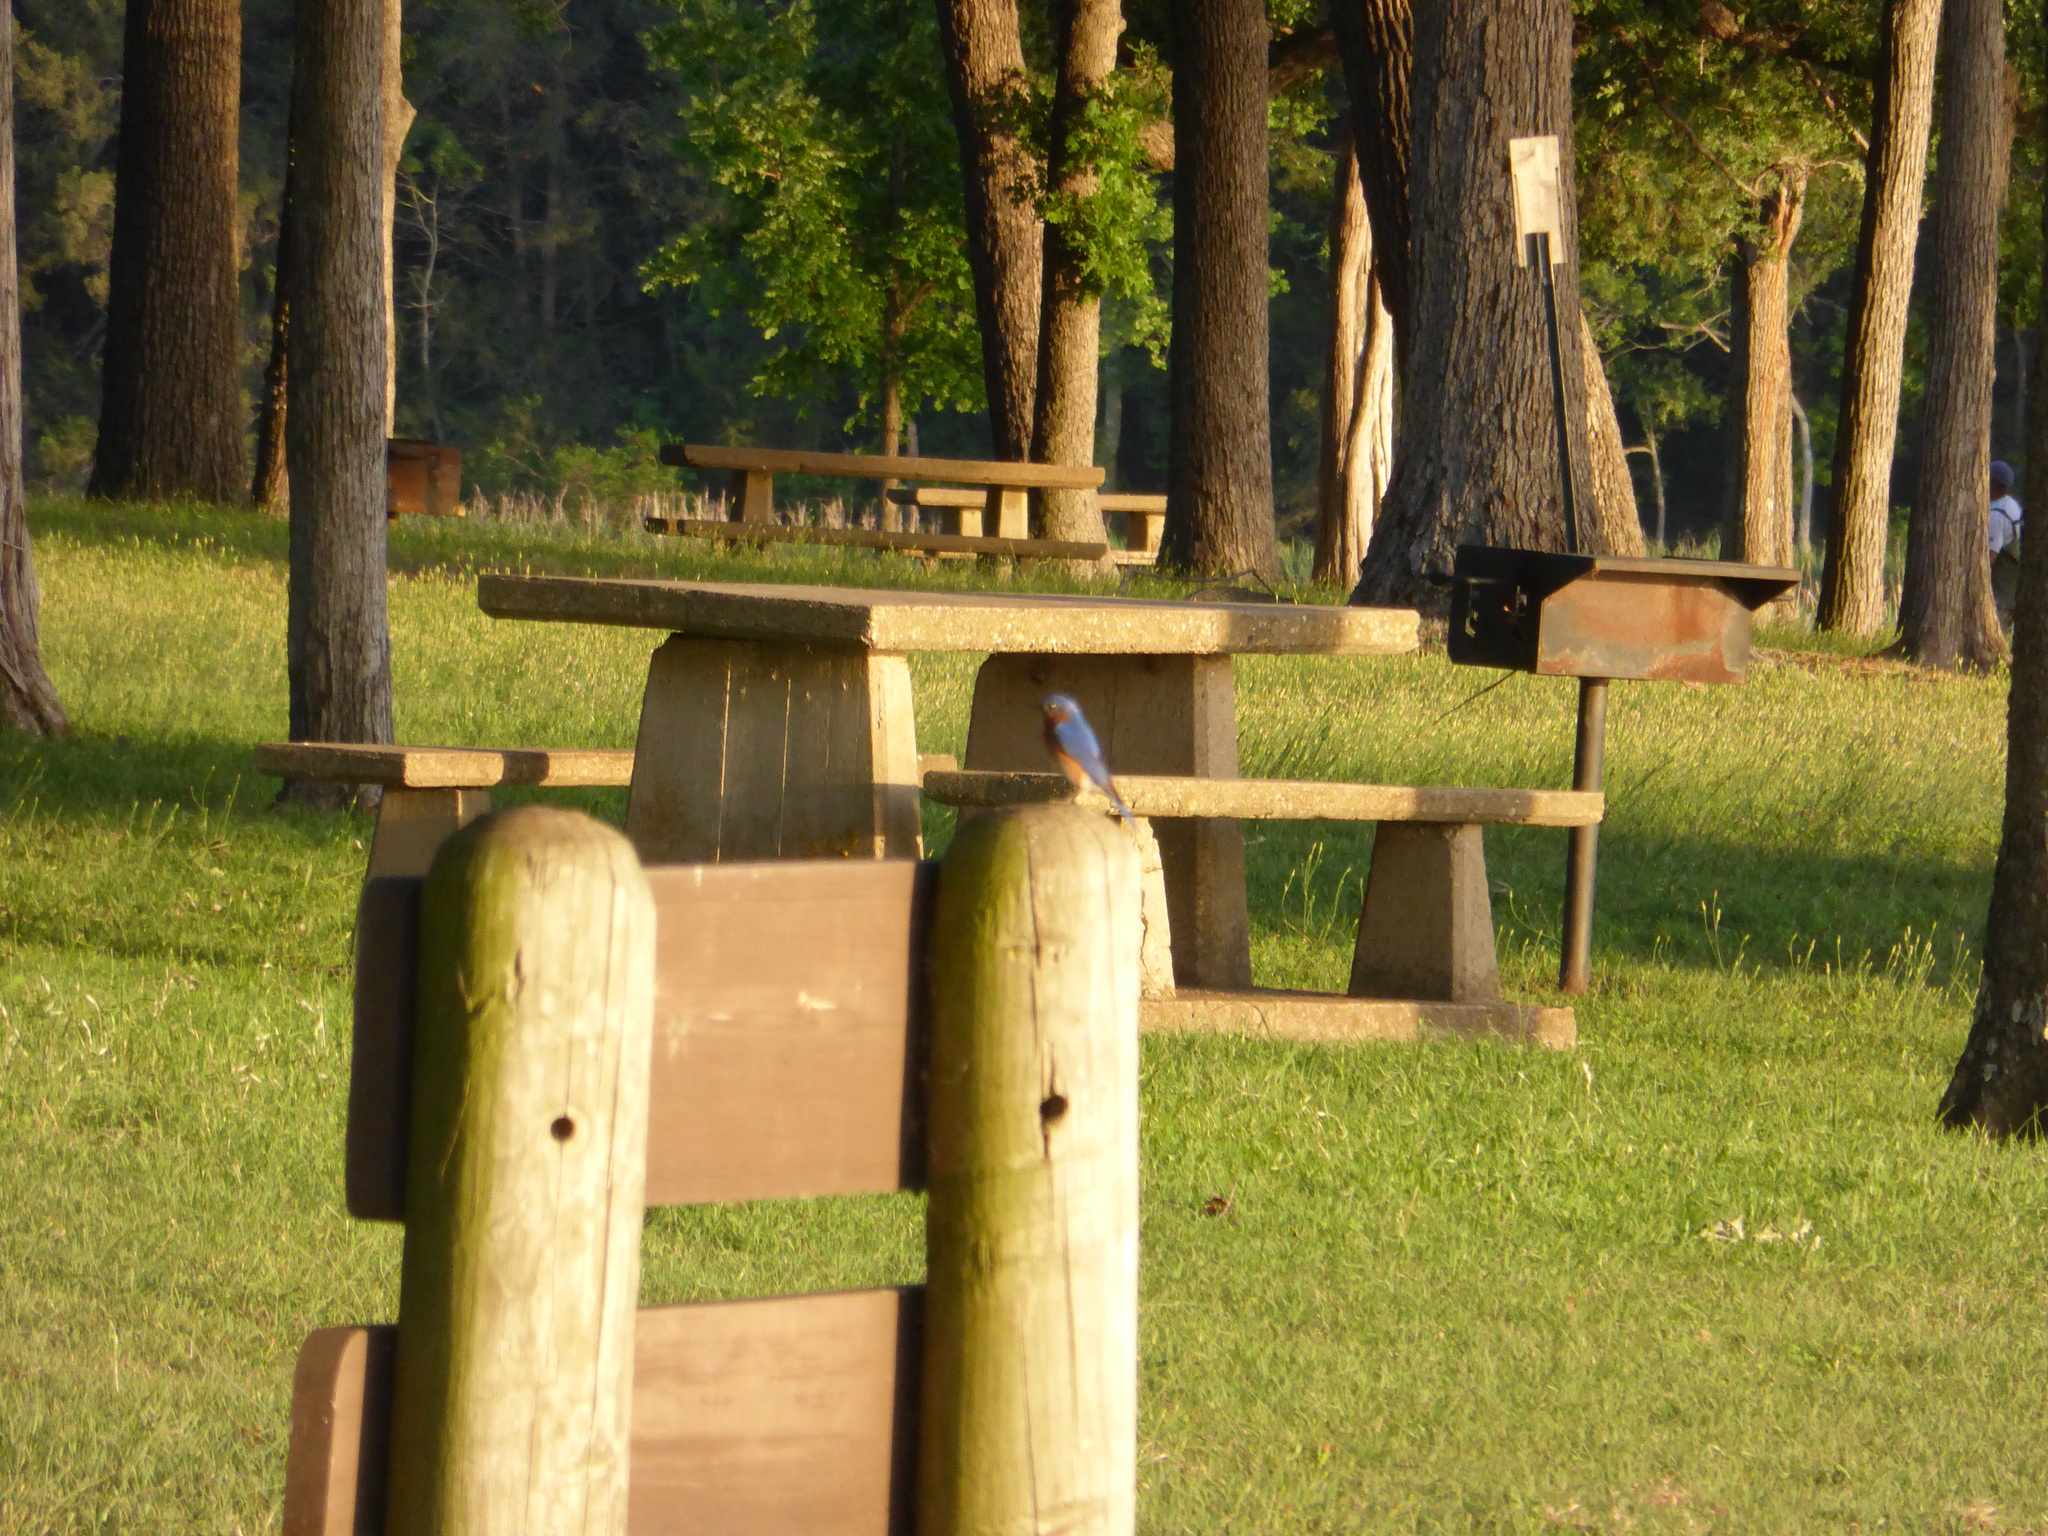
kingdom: Animalia
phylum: Chordata
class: Aves
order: Passeriformes
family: Turdidae
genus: Sialia
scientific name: Sialia sialis
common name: Eastern bluebird
